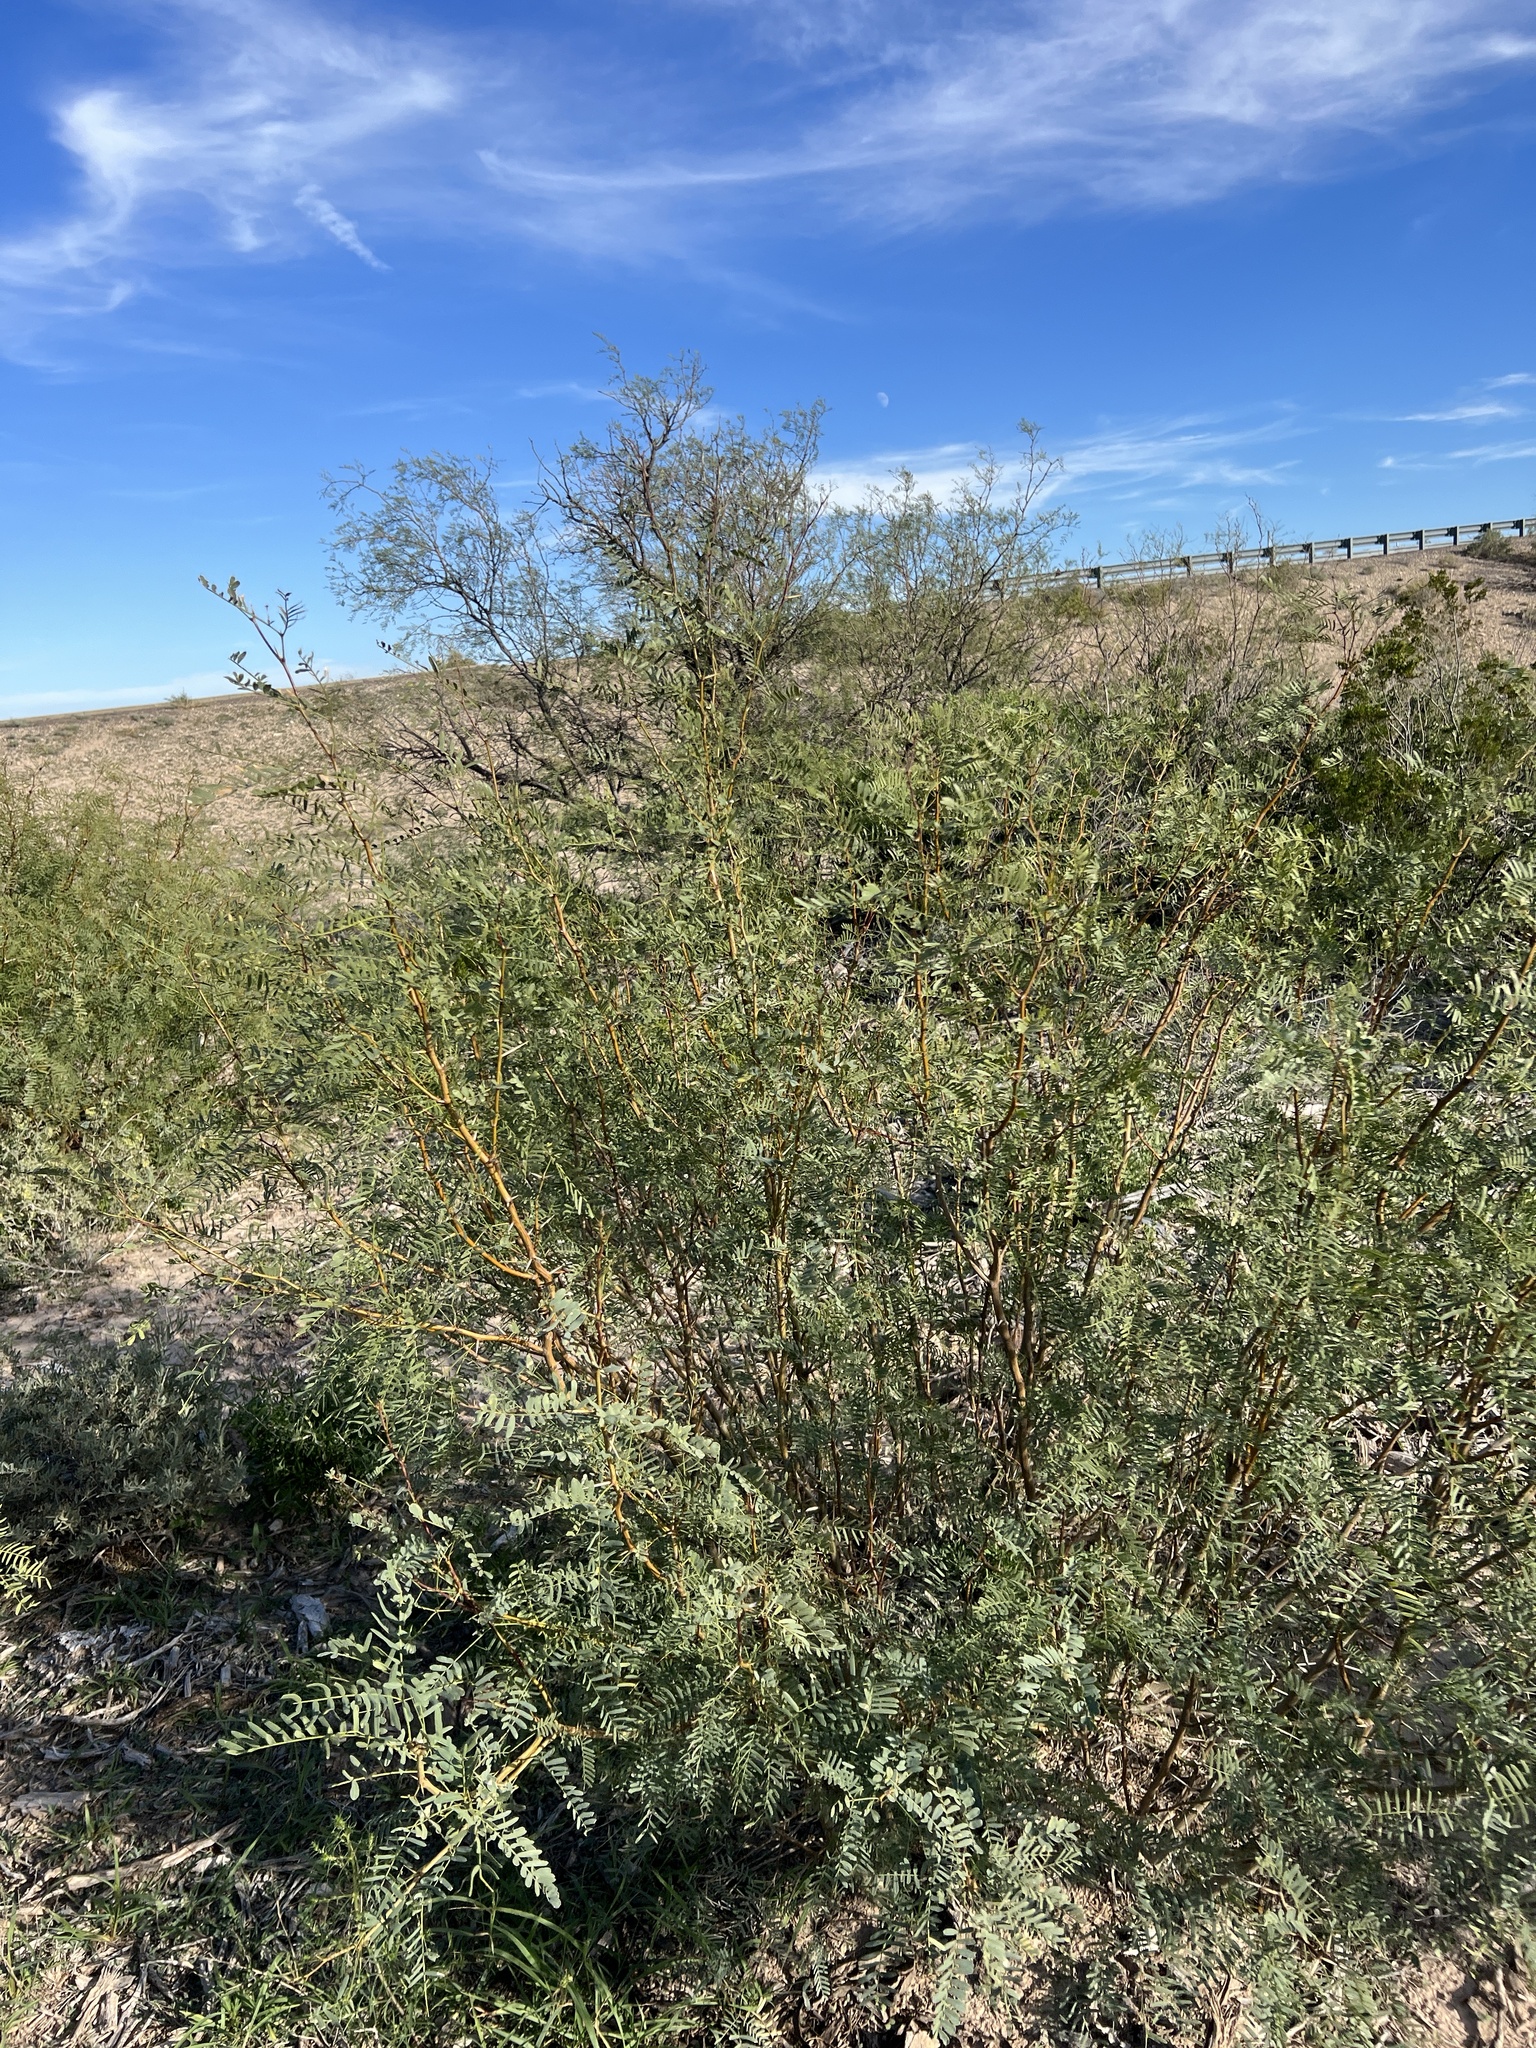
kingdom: Plantae
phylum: Tracheophyta
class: Magnoliopsida
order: Fabales
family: Fabaceae
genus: Prosopis
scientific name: Prosopis pubescens
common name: Screw-bean
